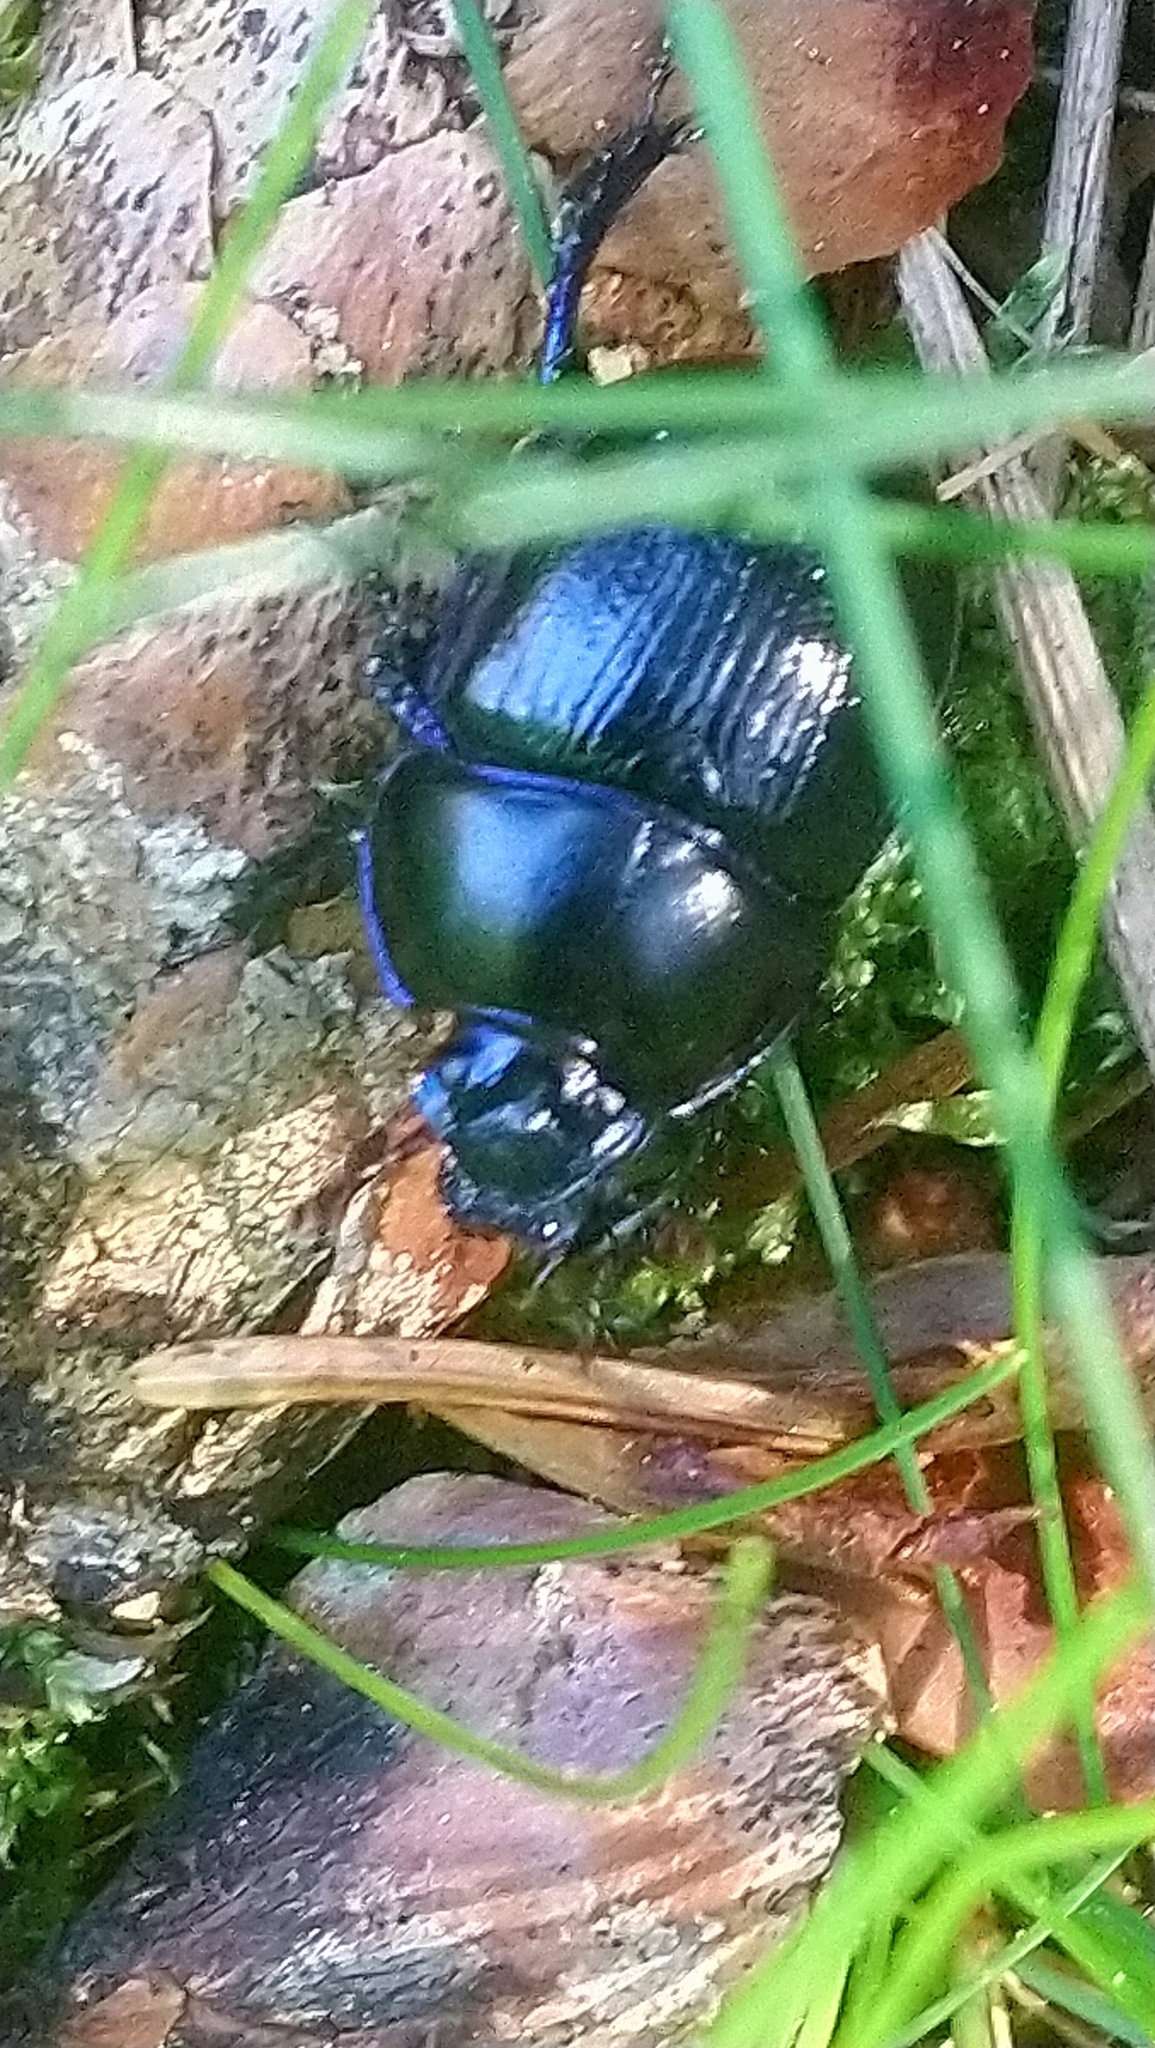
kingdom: Animalia
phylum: Arthropoda
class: Insecta
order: Coleoptera
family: Geotrupidae
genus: Anoplotrupes
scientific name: Anoplotrupes stercorosus
